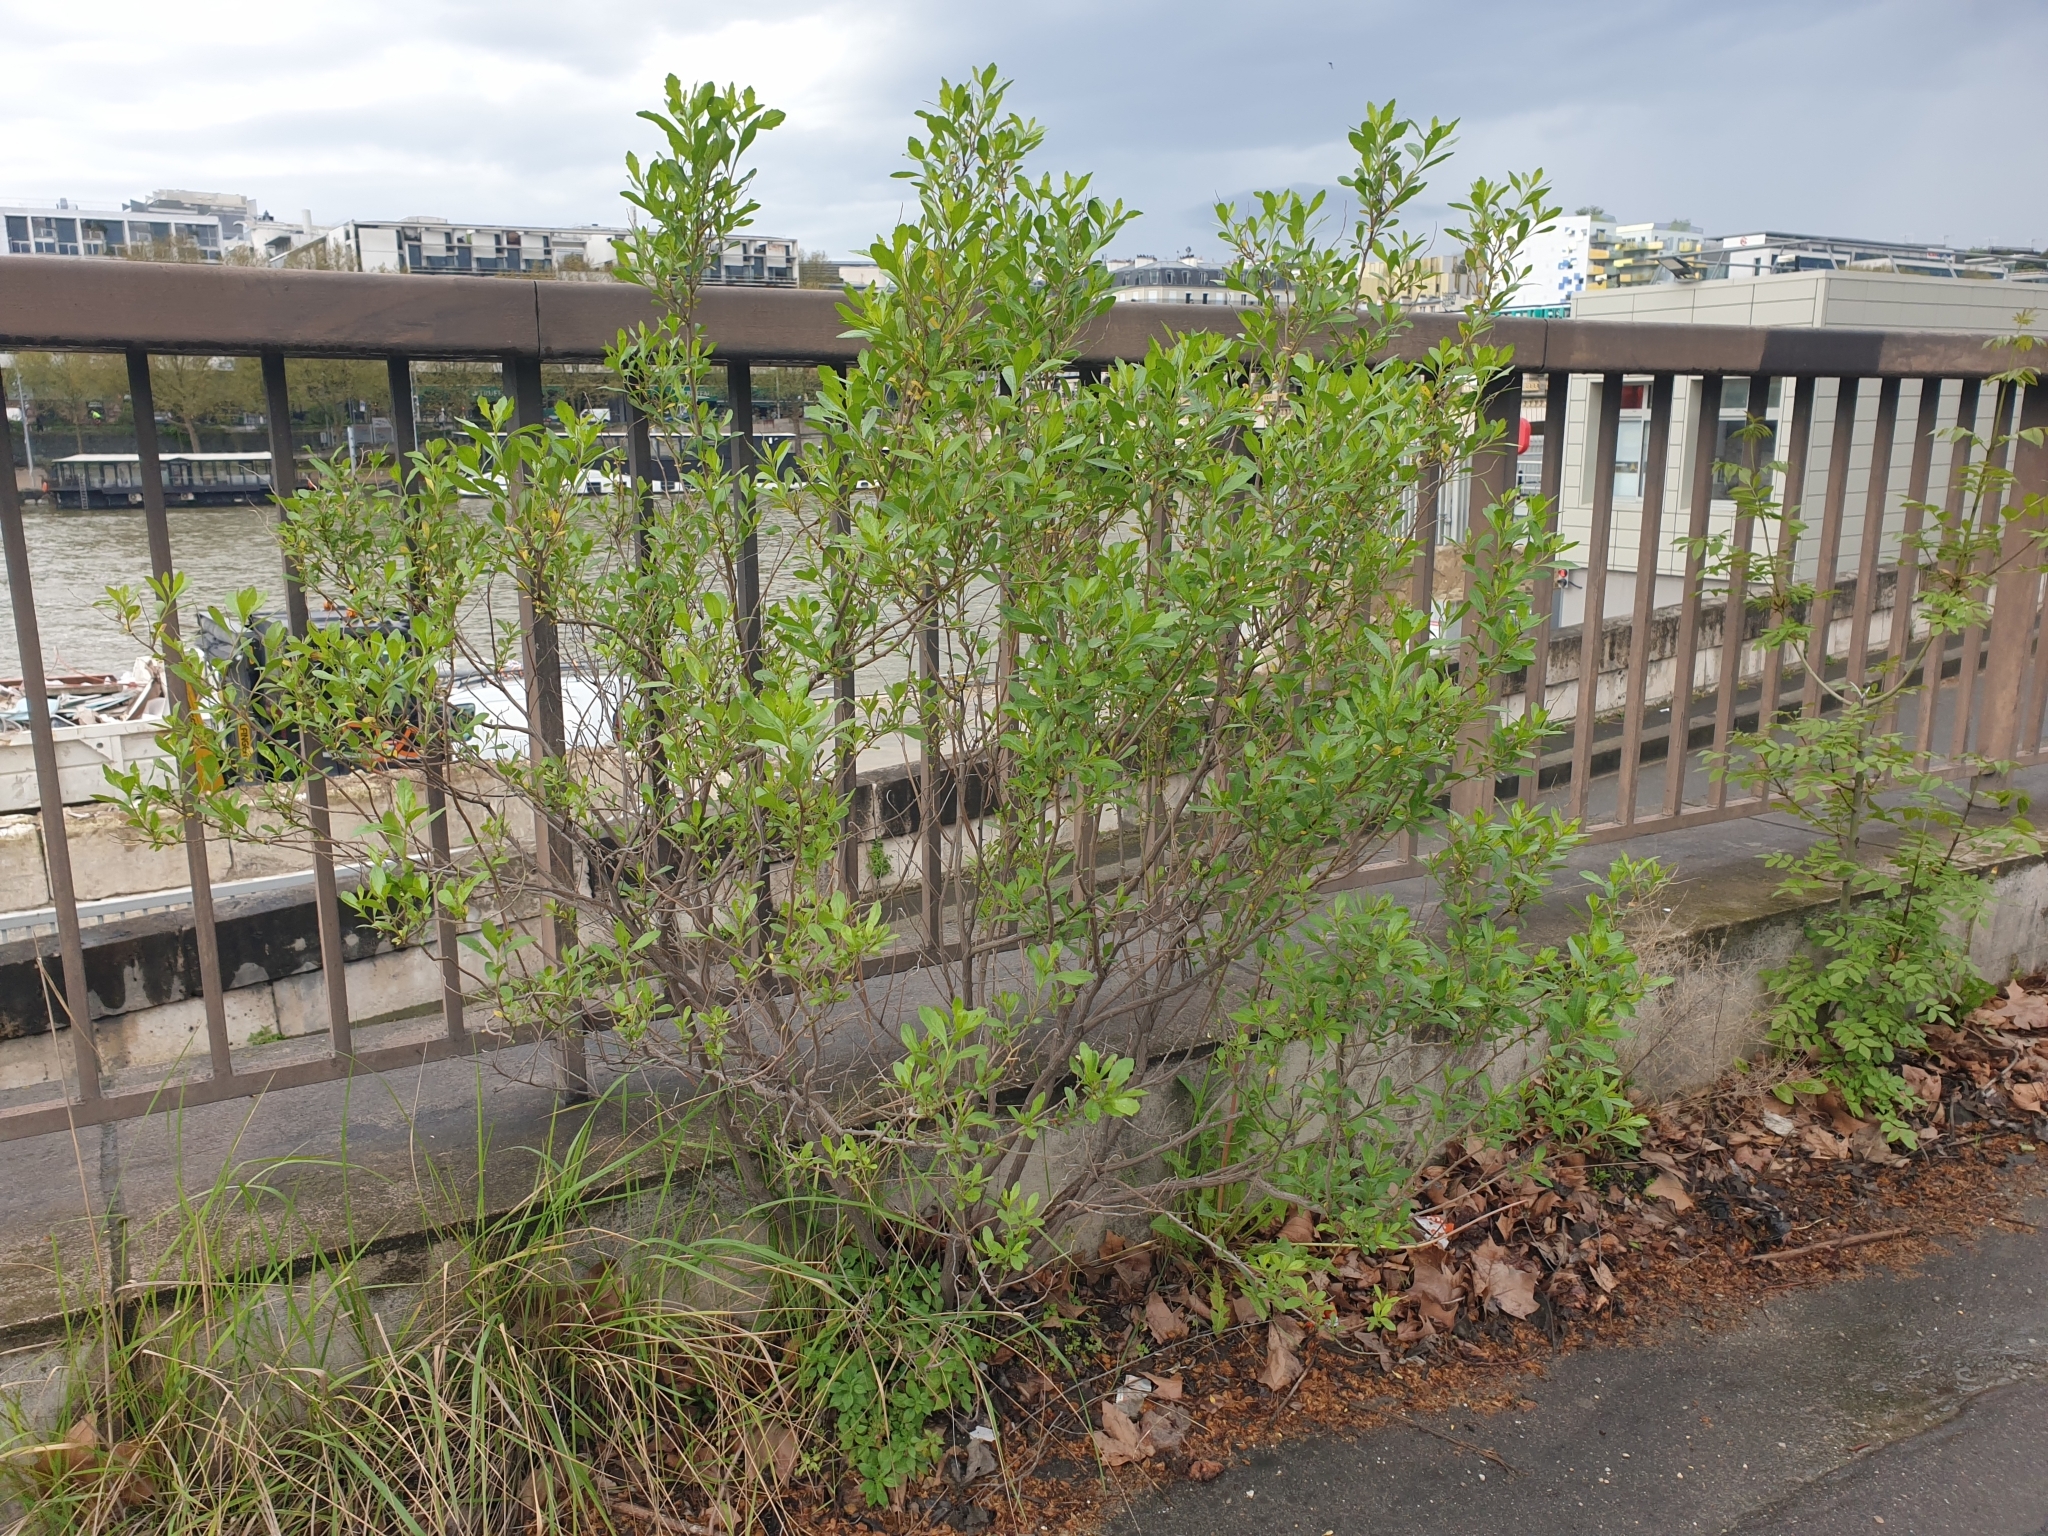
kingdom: Plantae
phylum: Tracheophyta
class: Magnoliopsida
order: Asterales
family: Asteraceae
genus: Baccharis
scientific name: Baccharis halimifolia
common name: Eastern baccharis
